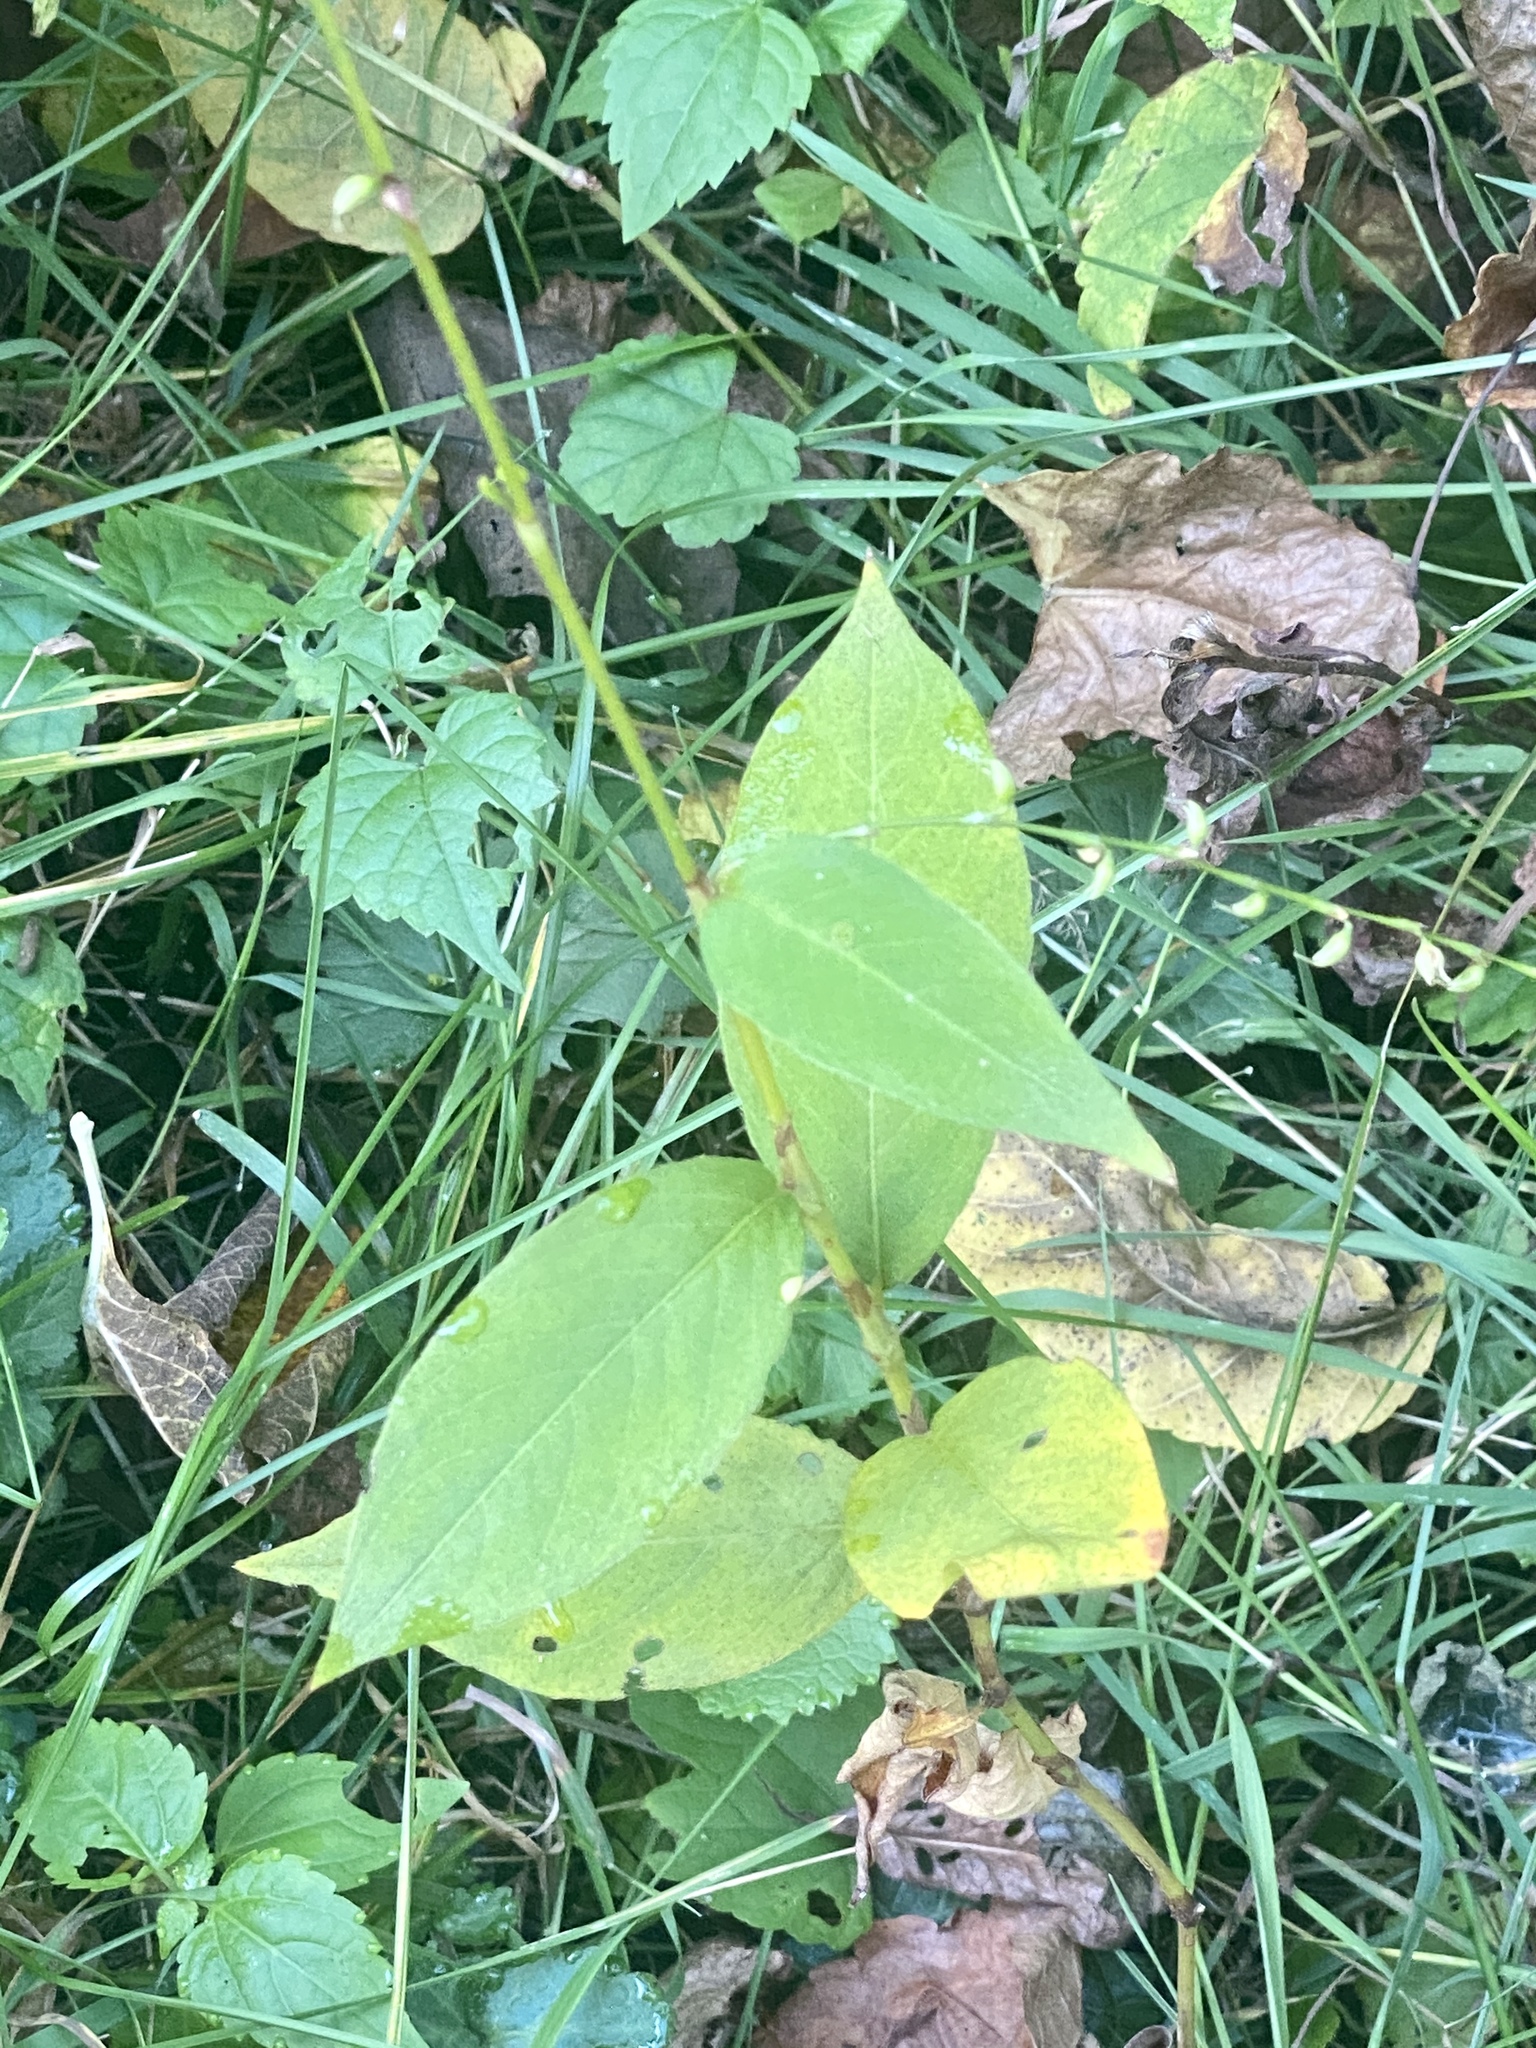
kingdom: Plantae
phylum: Tracheophyta
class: Magnoliopsida
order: Caryophyllales
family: Polygonaceae
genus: Persicaria
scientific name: Persicaria virginiana
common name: Jumpseed
